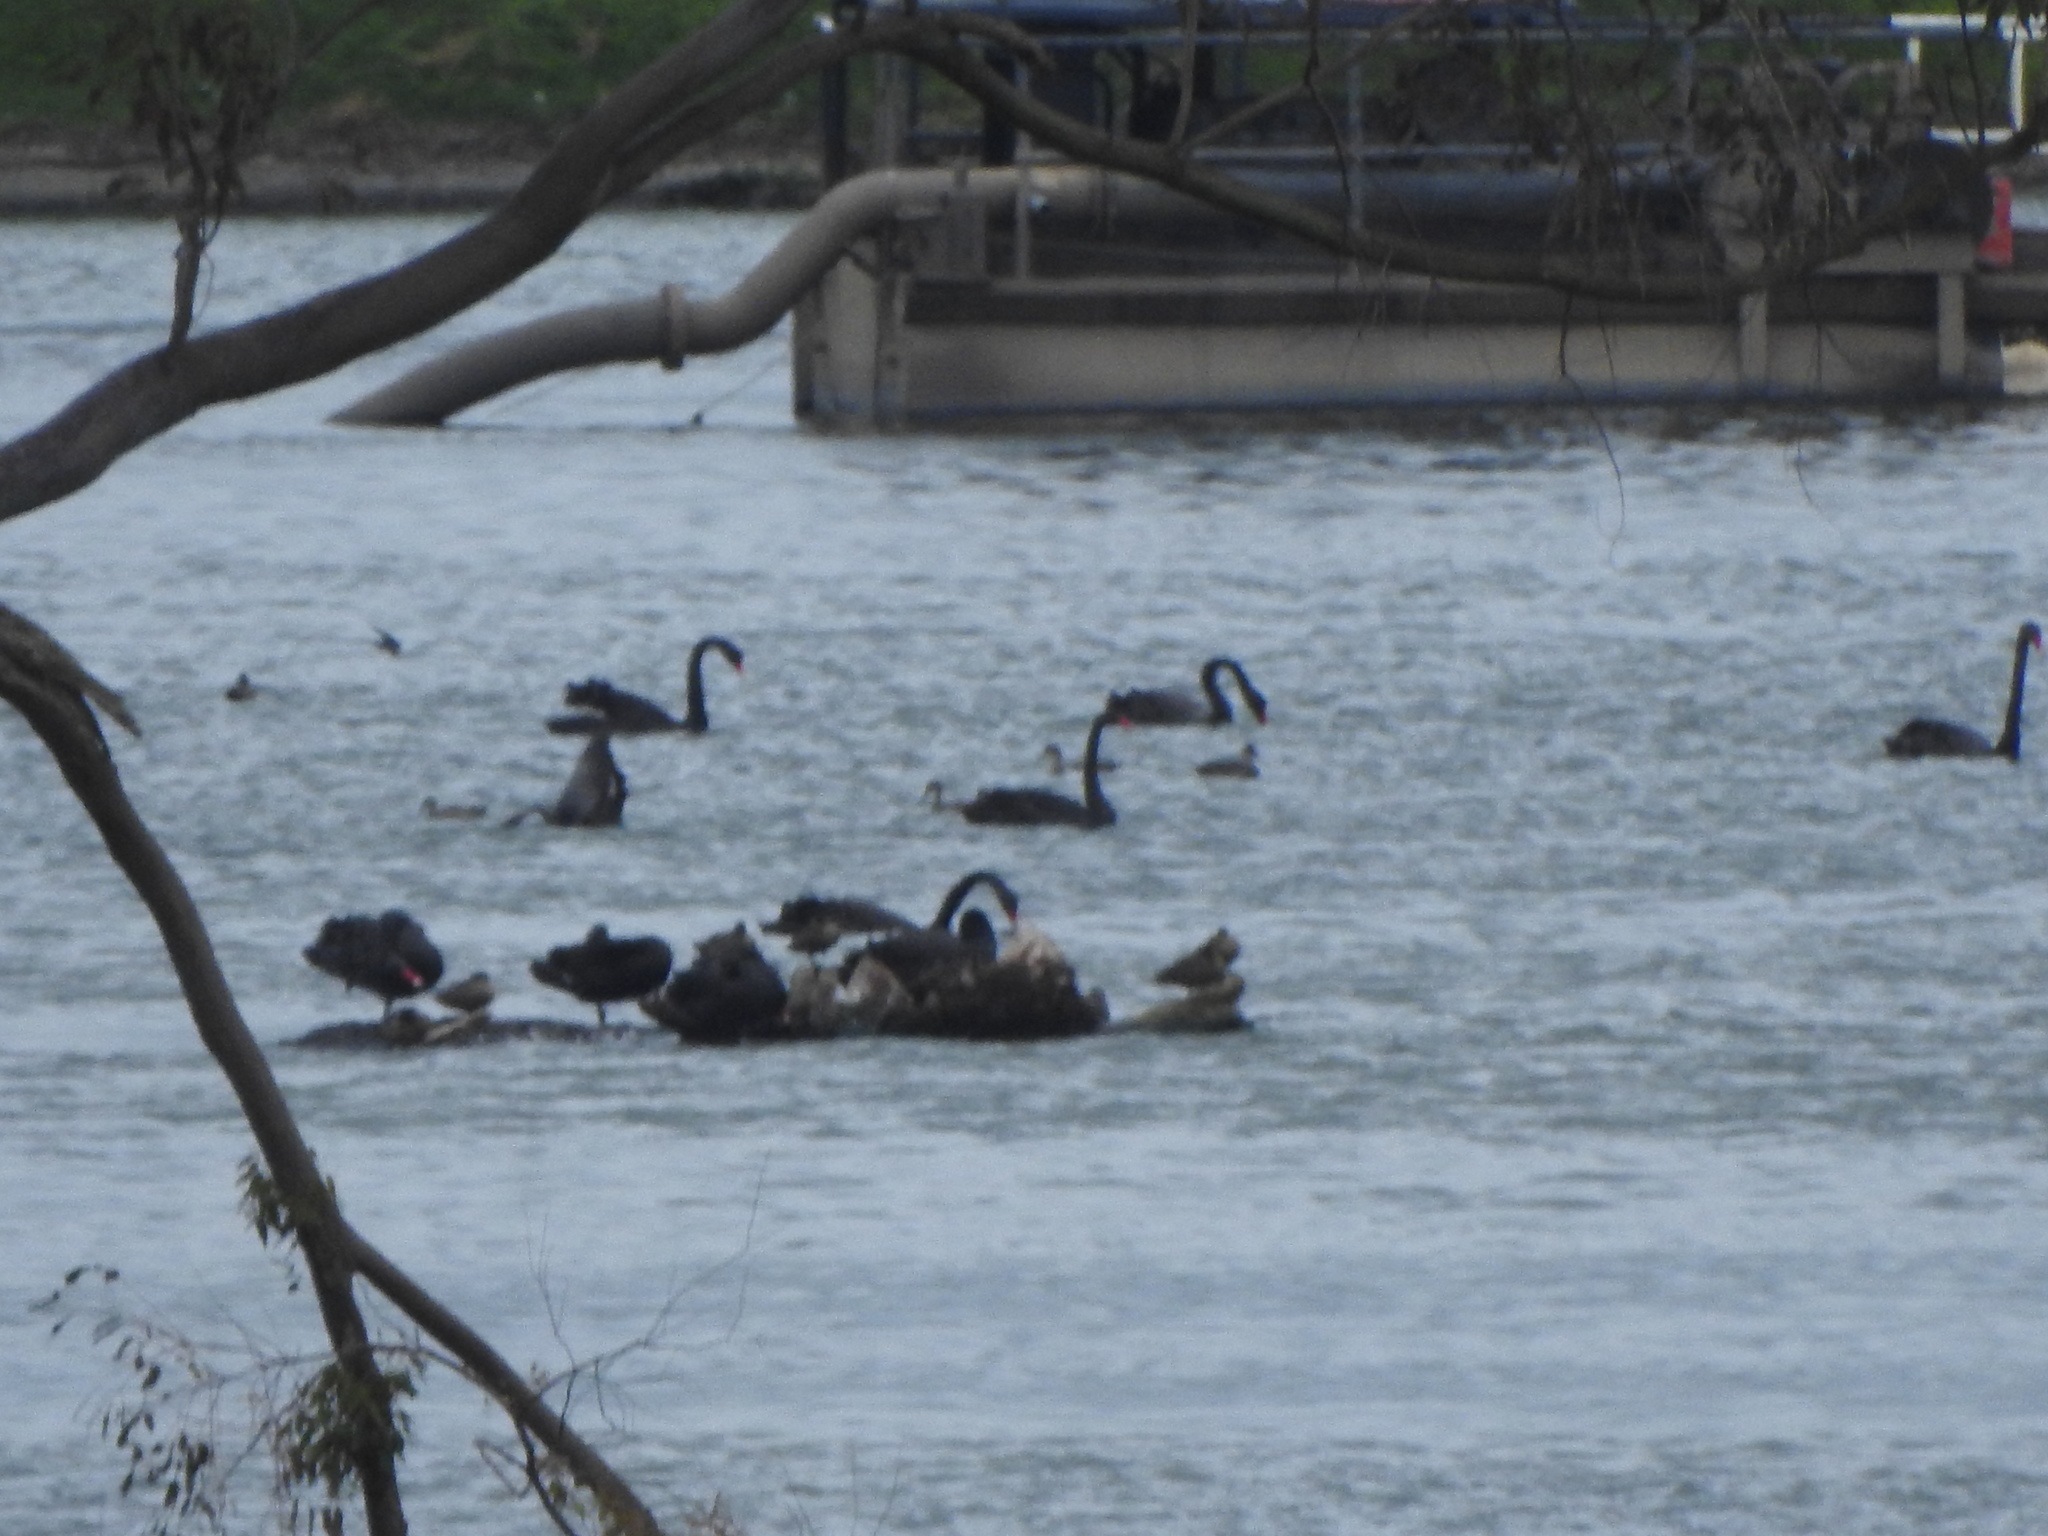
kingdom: Animalia
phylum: Chordata
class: Aves
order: Anseriformes
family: Anatidae
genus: Cygnus
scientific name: Cygnus atratus
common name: Black swan
